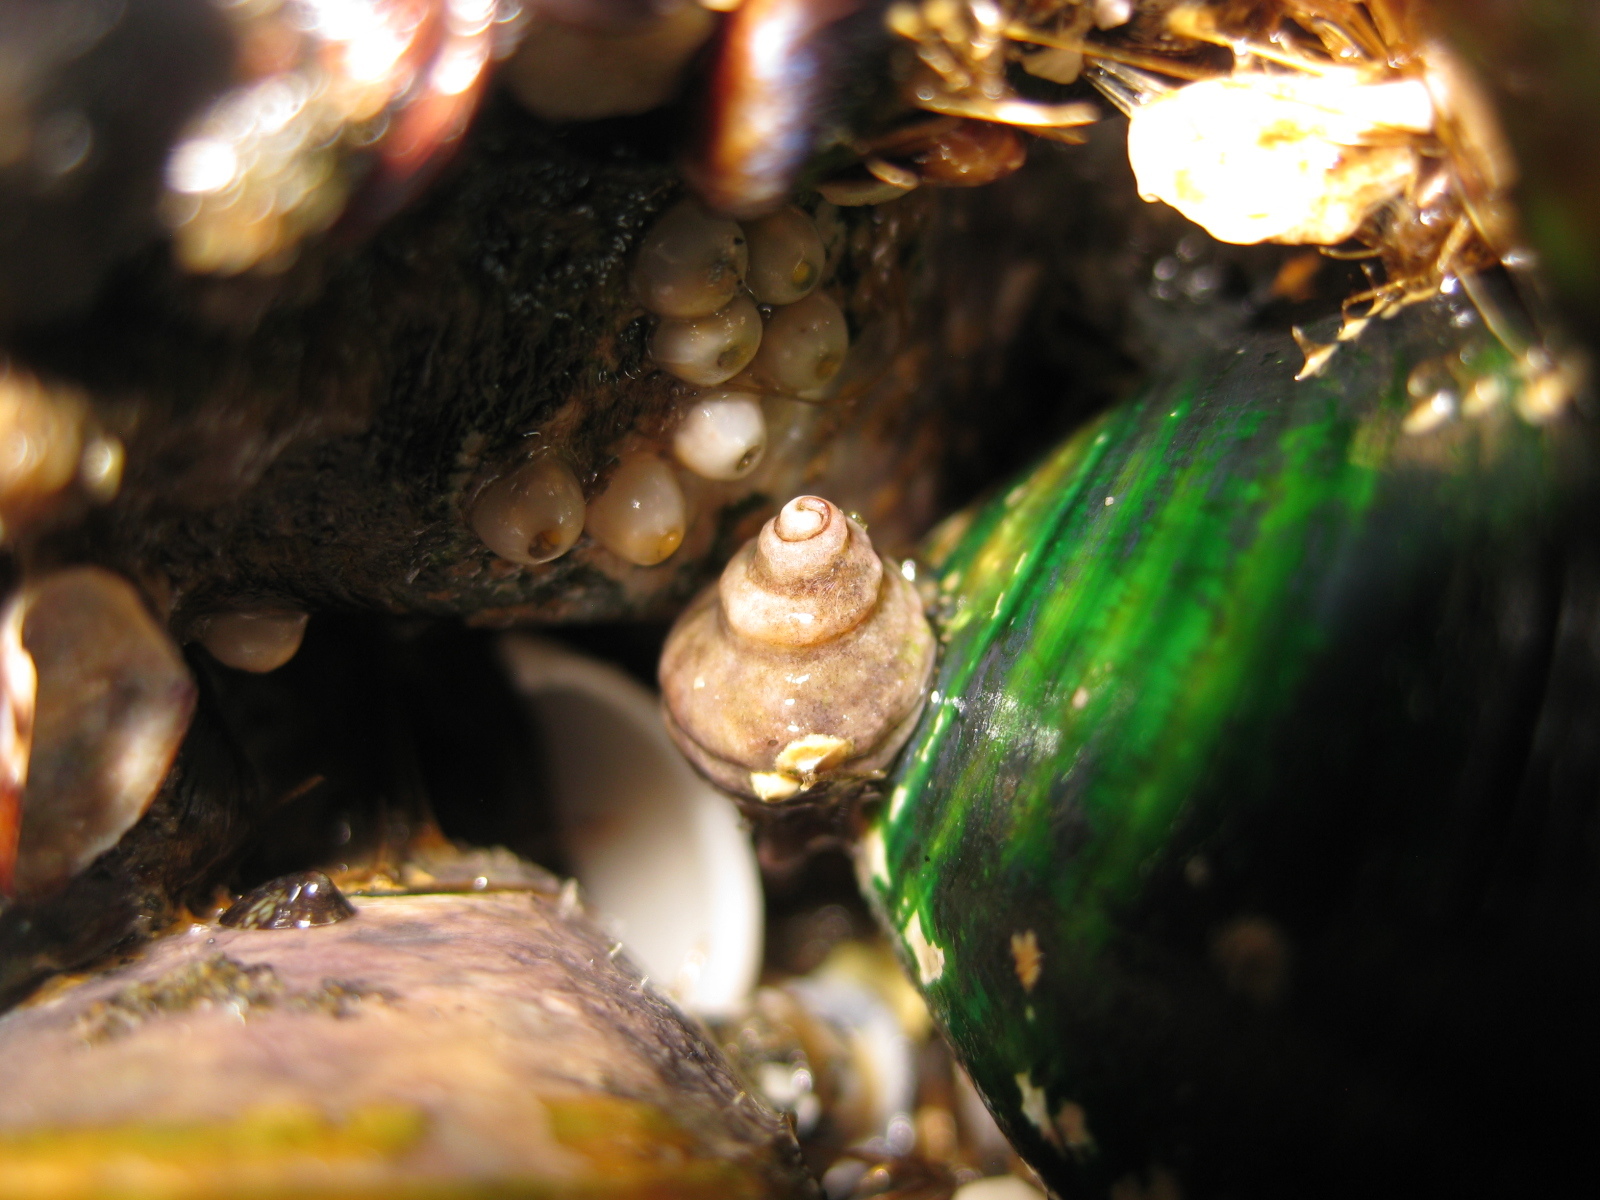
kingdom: Animalia
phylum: Mollusca
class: Gastropoda
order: Neogastropoda
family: Muricidae
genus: Paratrophon
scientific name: Paratrophon cheesemani
